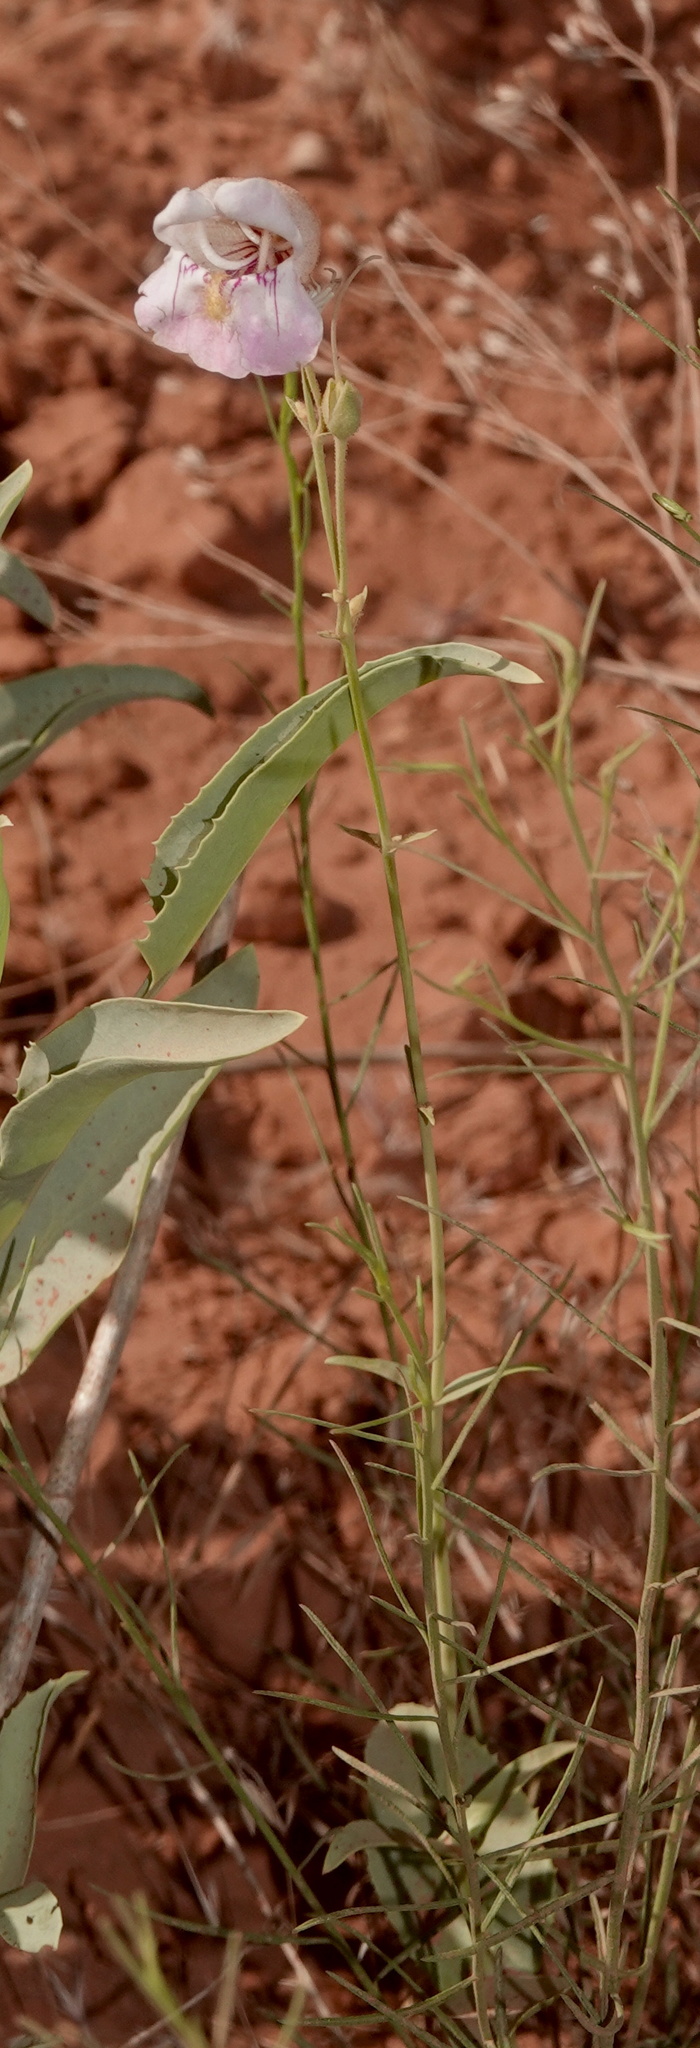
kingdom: Plantae
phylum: Tracheophyta
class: Magnoliopsida
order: Lamiales
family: Plantaginaceae
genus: Penstemon
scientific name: Penstemon palmeri
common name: Palmer penstemon
